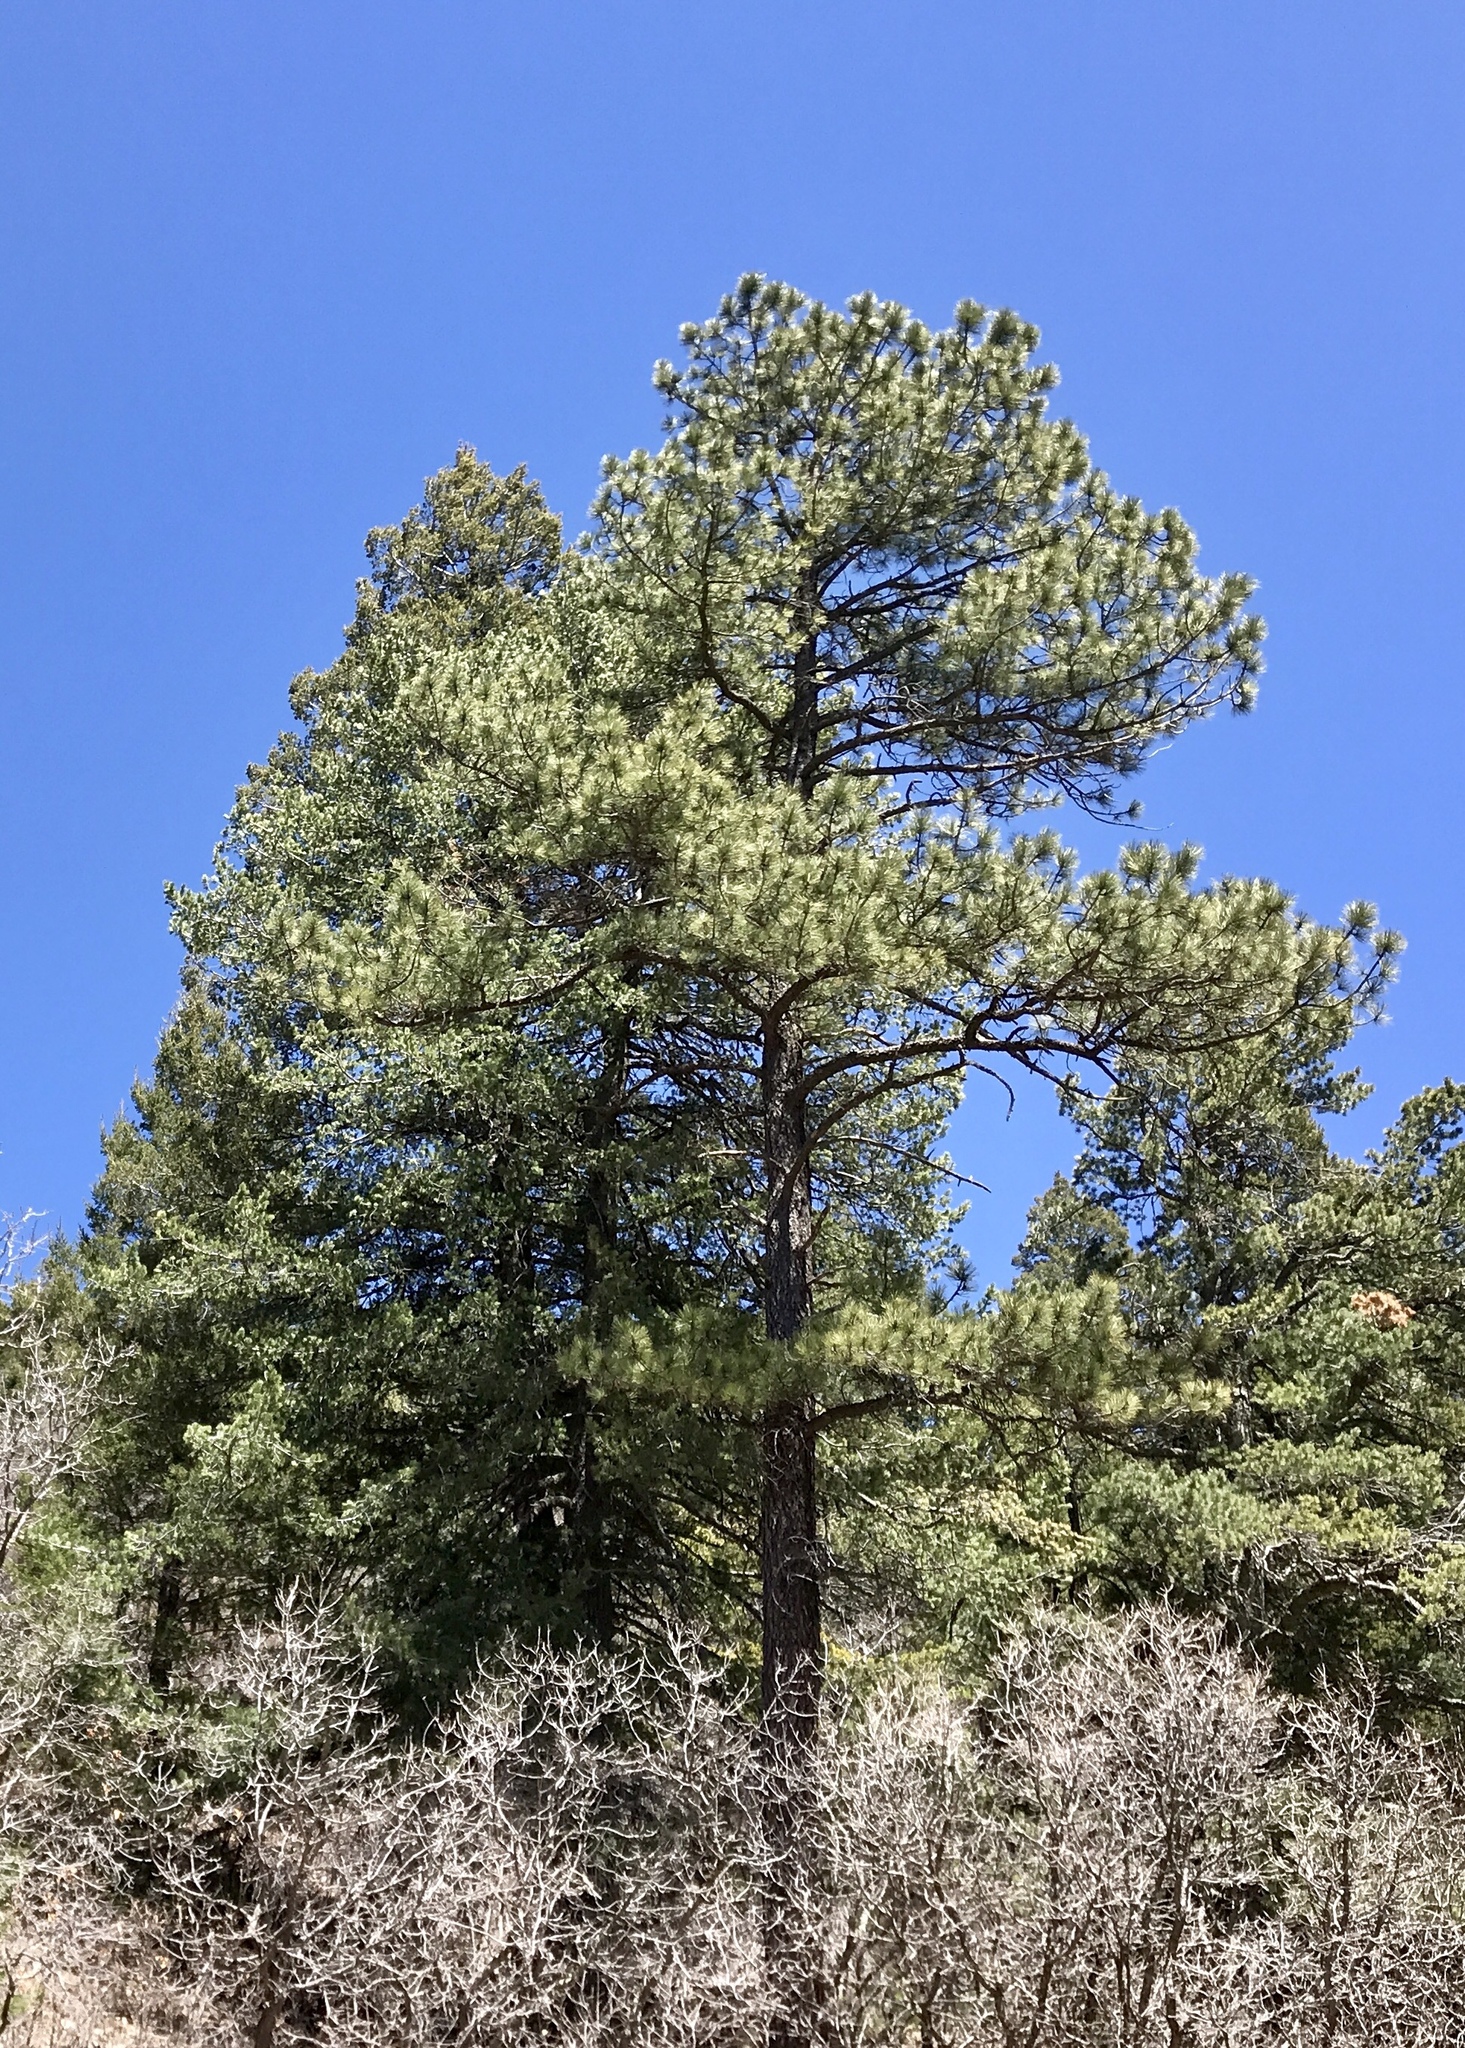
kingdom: Plantae
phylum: Tracheophyta
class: Pinopsida
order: Pinales
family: Pinaceae
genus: Pinus
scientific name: Pinus ponderosa
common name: Western yellow-pine
